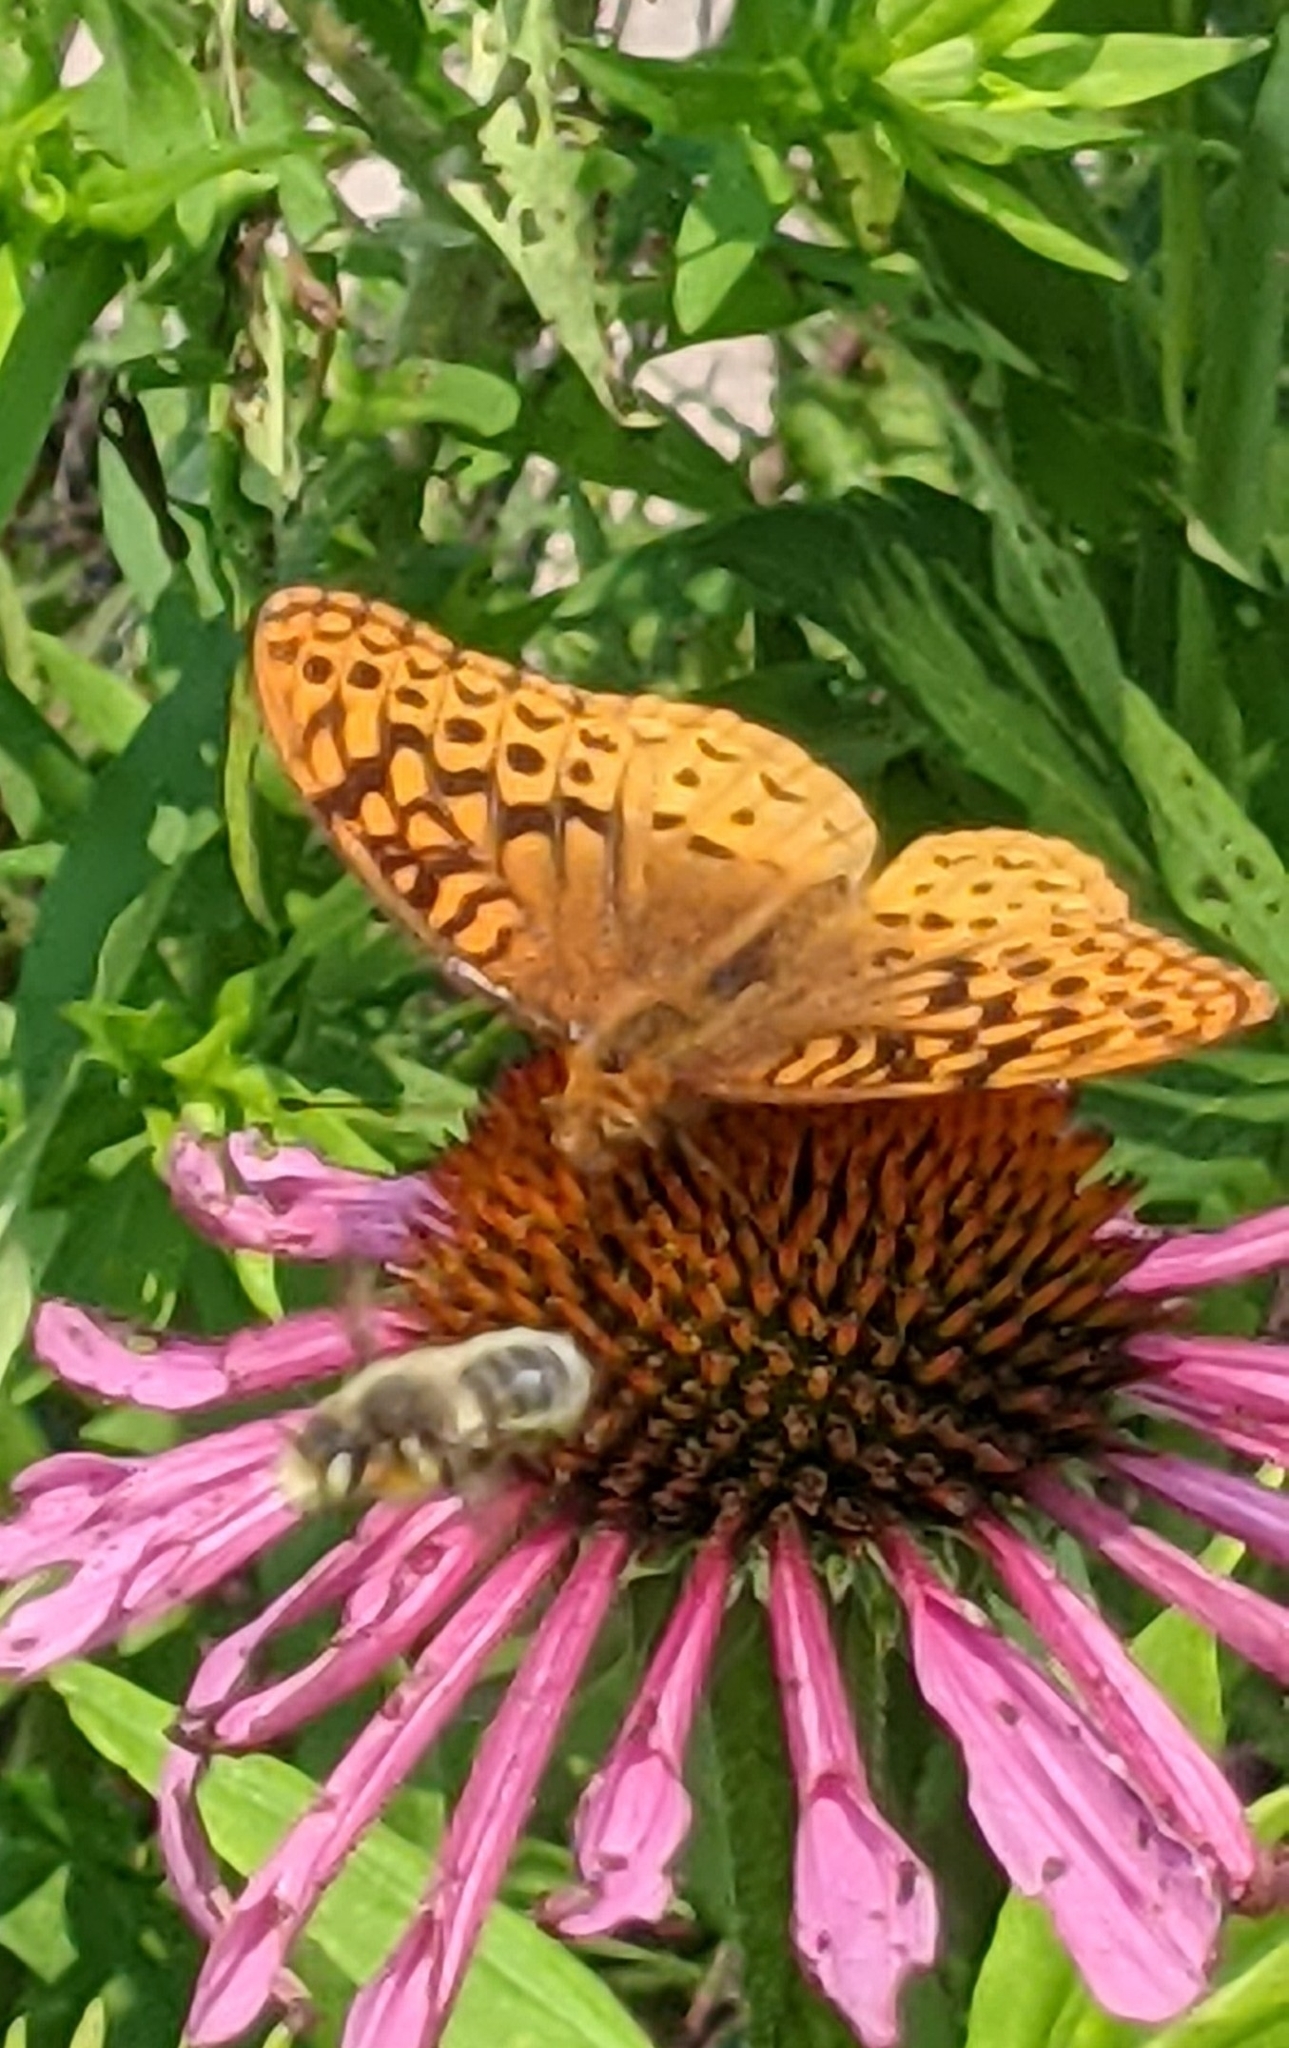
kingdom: Animalia
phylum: Arthropoda
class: Insecta
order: Lepidoptera
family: Nymphalidae
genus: Speyeria
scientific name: Speyeria cybele
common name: Great spangled fritillary
